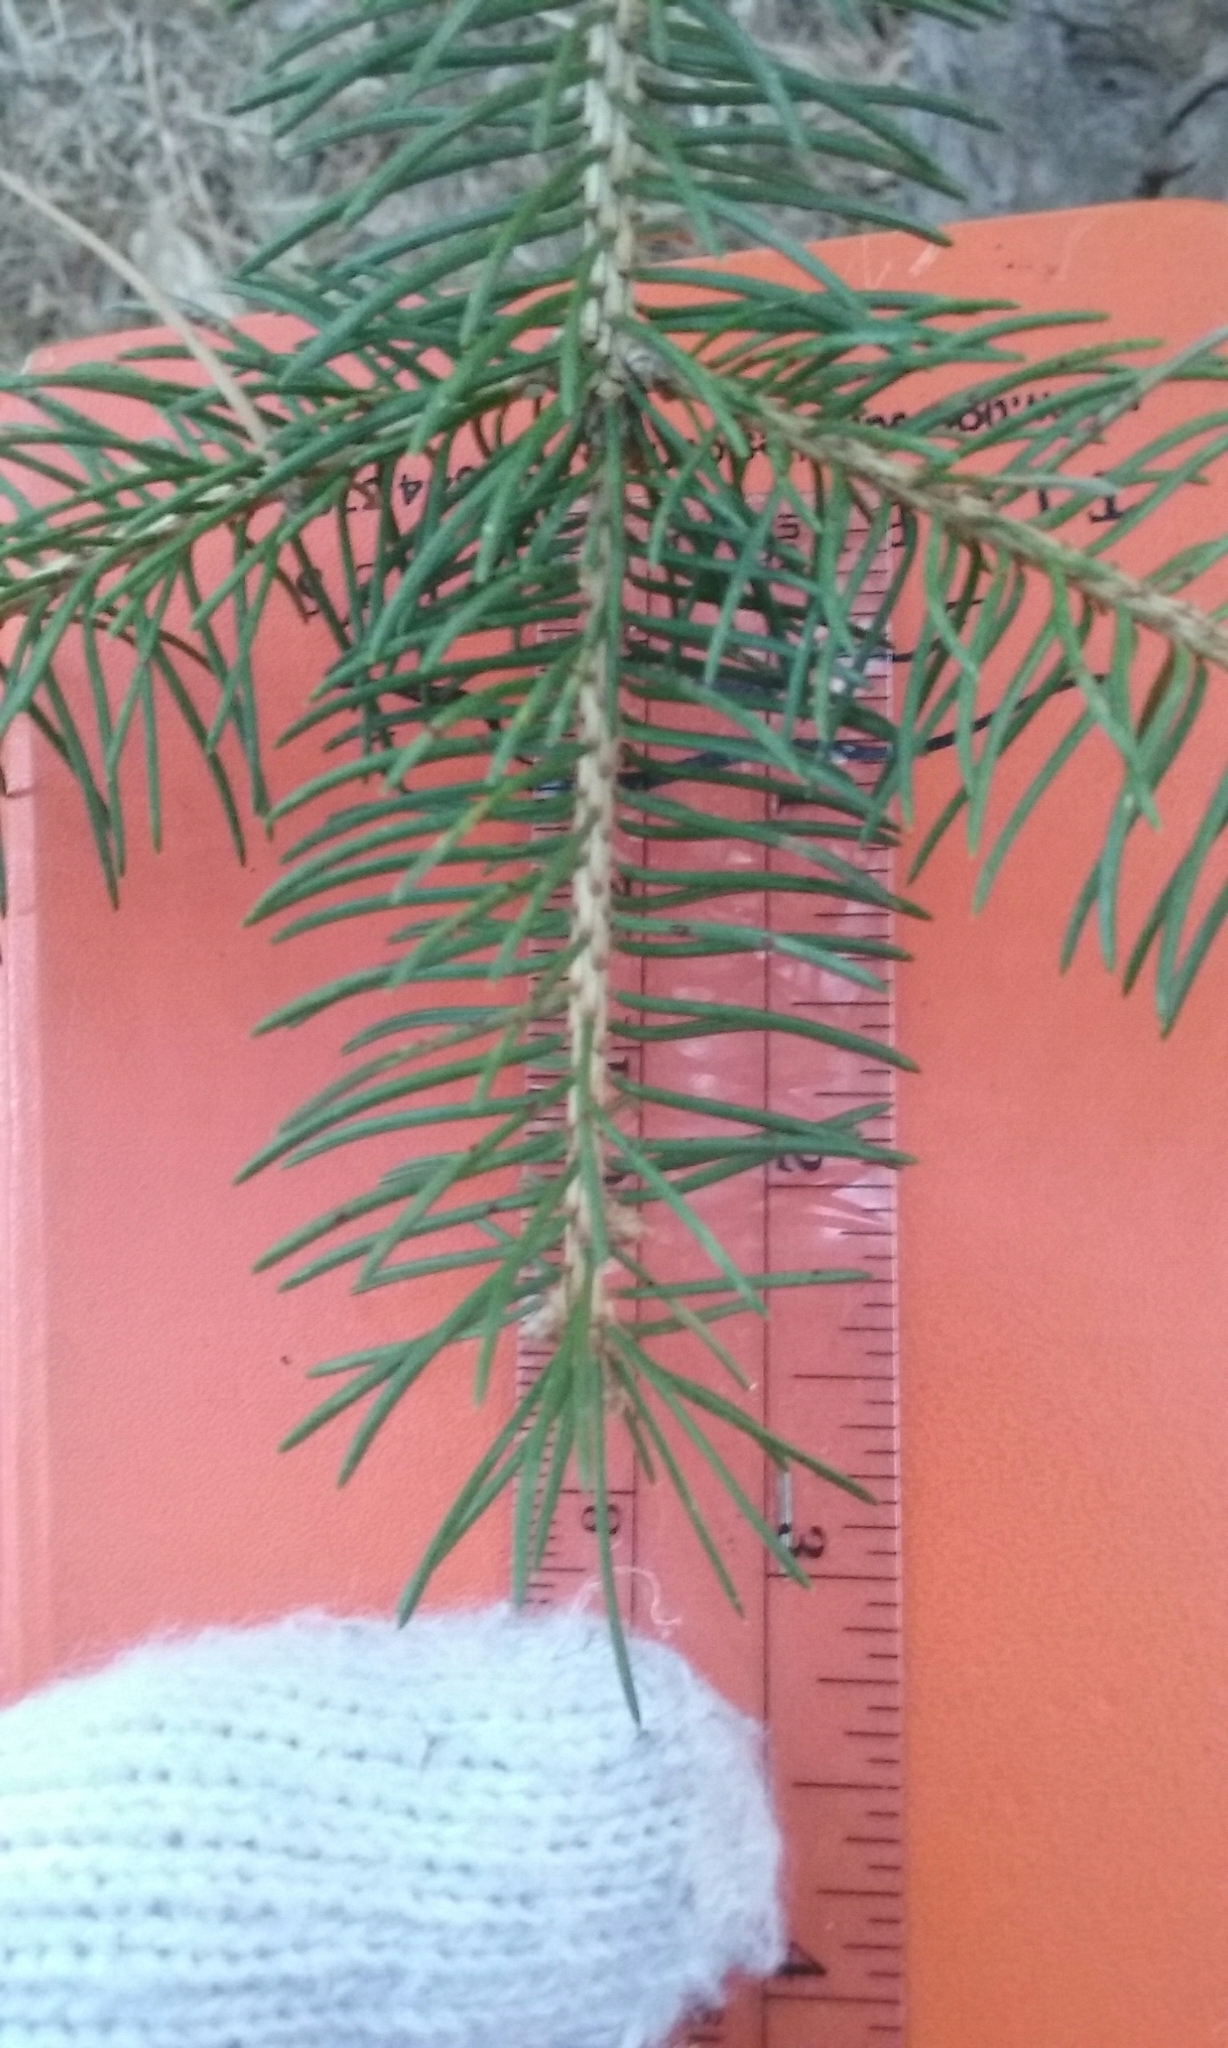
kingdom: Plantae
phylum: Tracheophyta
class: Pinopsida
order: Pinales
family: Pinaceae
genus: Picea
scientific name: Picea glauca
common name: White spruce
